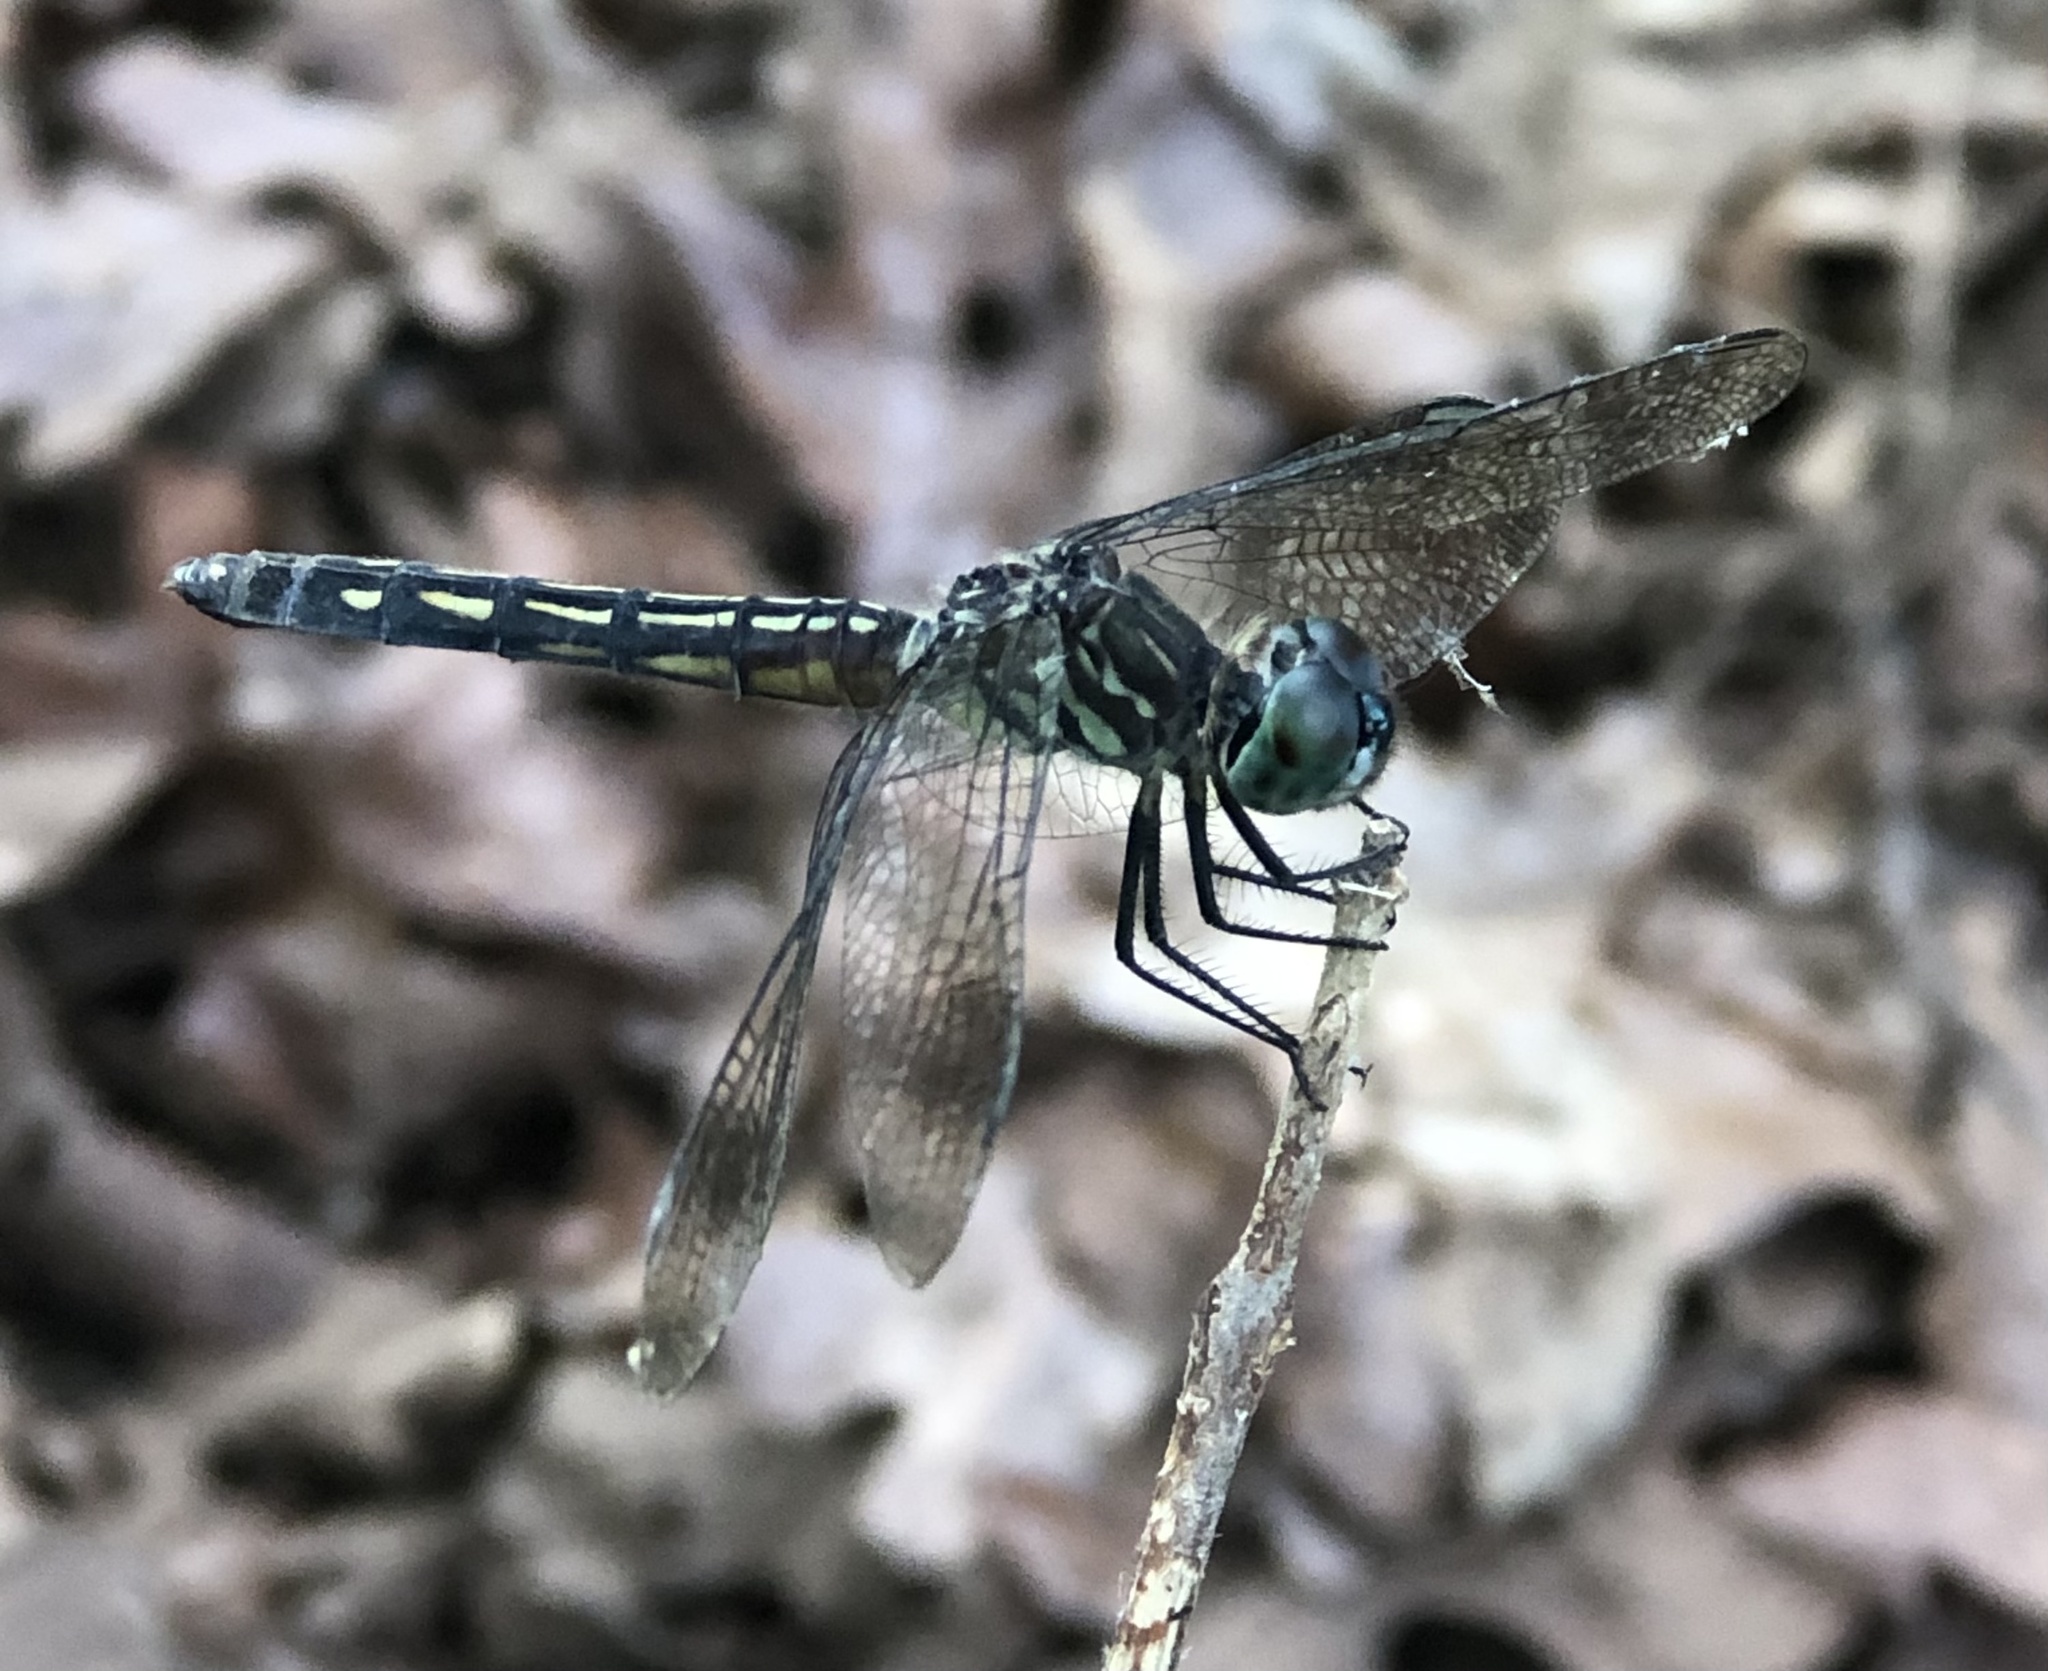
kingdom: Animalia
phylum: Arthropoda
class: Insecta
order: Odonata
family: Libellulidae
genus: Pachydiplax
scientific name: Pachydiplax longipennis
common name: Blue dasher
